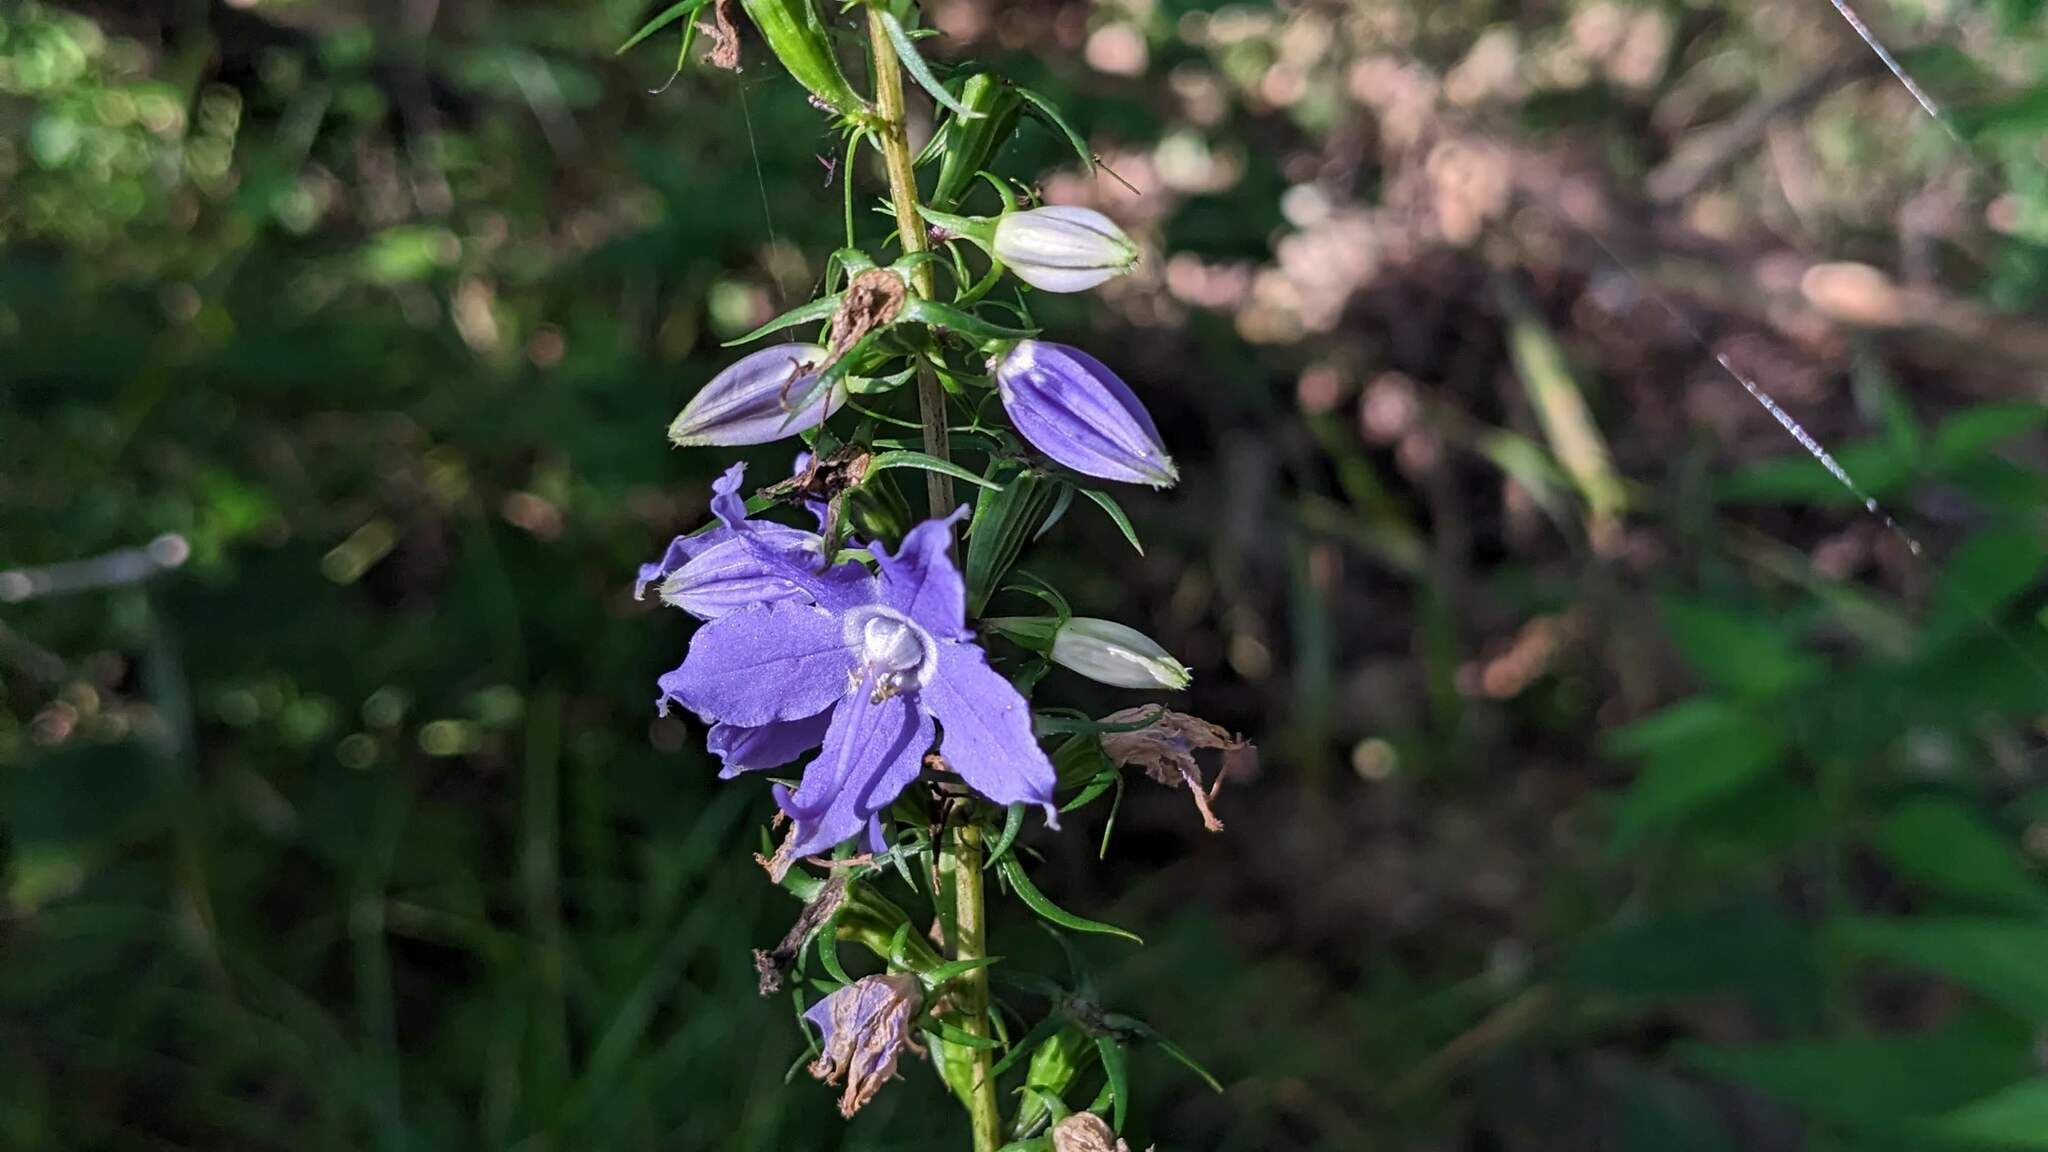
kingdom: Plantae
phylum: Tracheophyta
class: Magnoliopsida
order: Asterales
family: Campanulaceae
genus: Campanulastrum
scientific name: Campanulastrum americanum
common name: American bellflower
